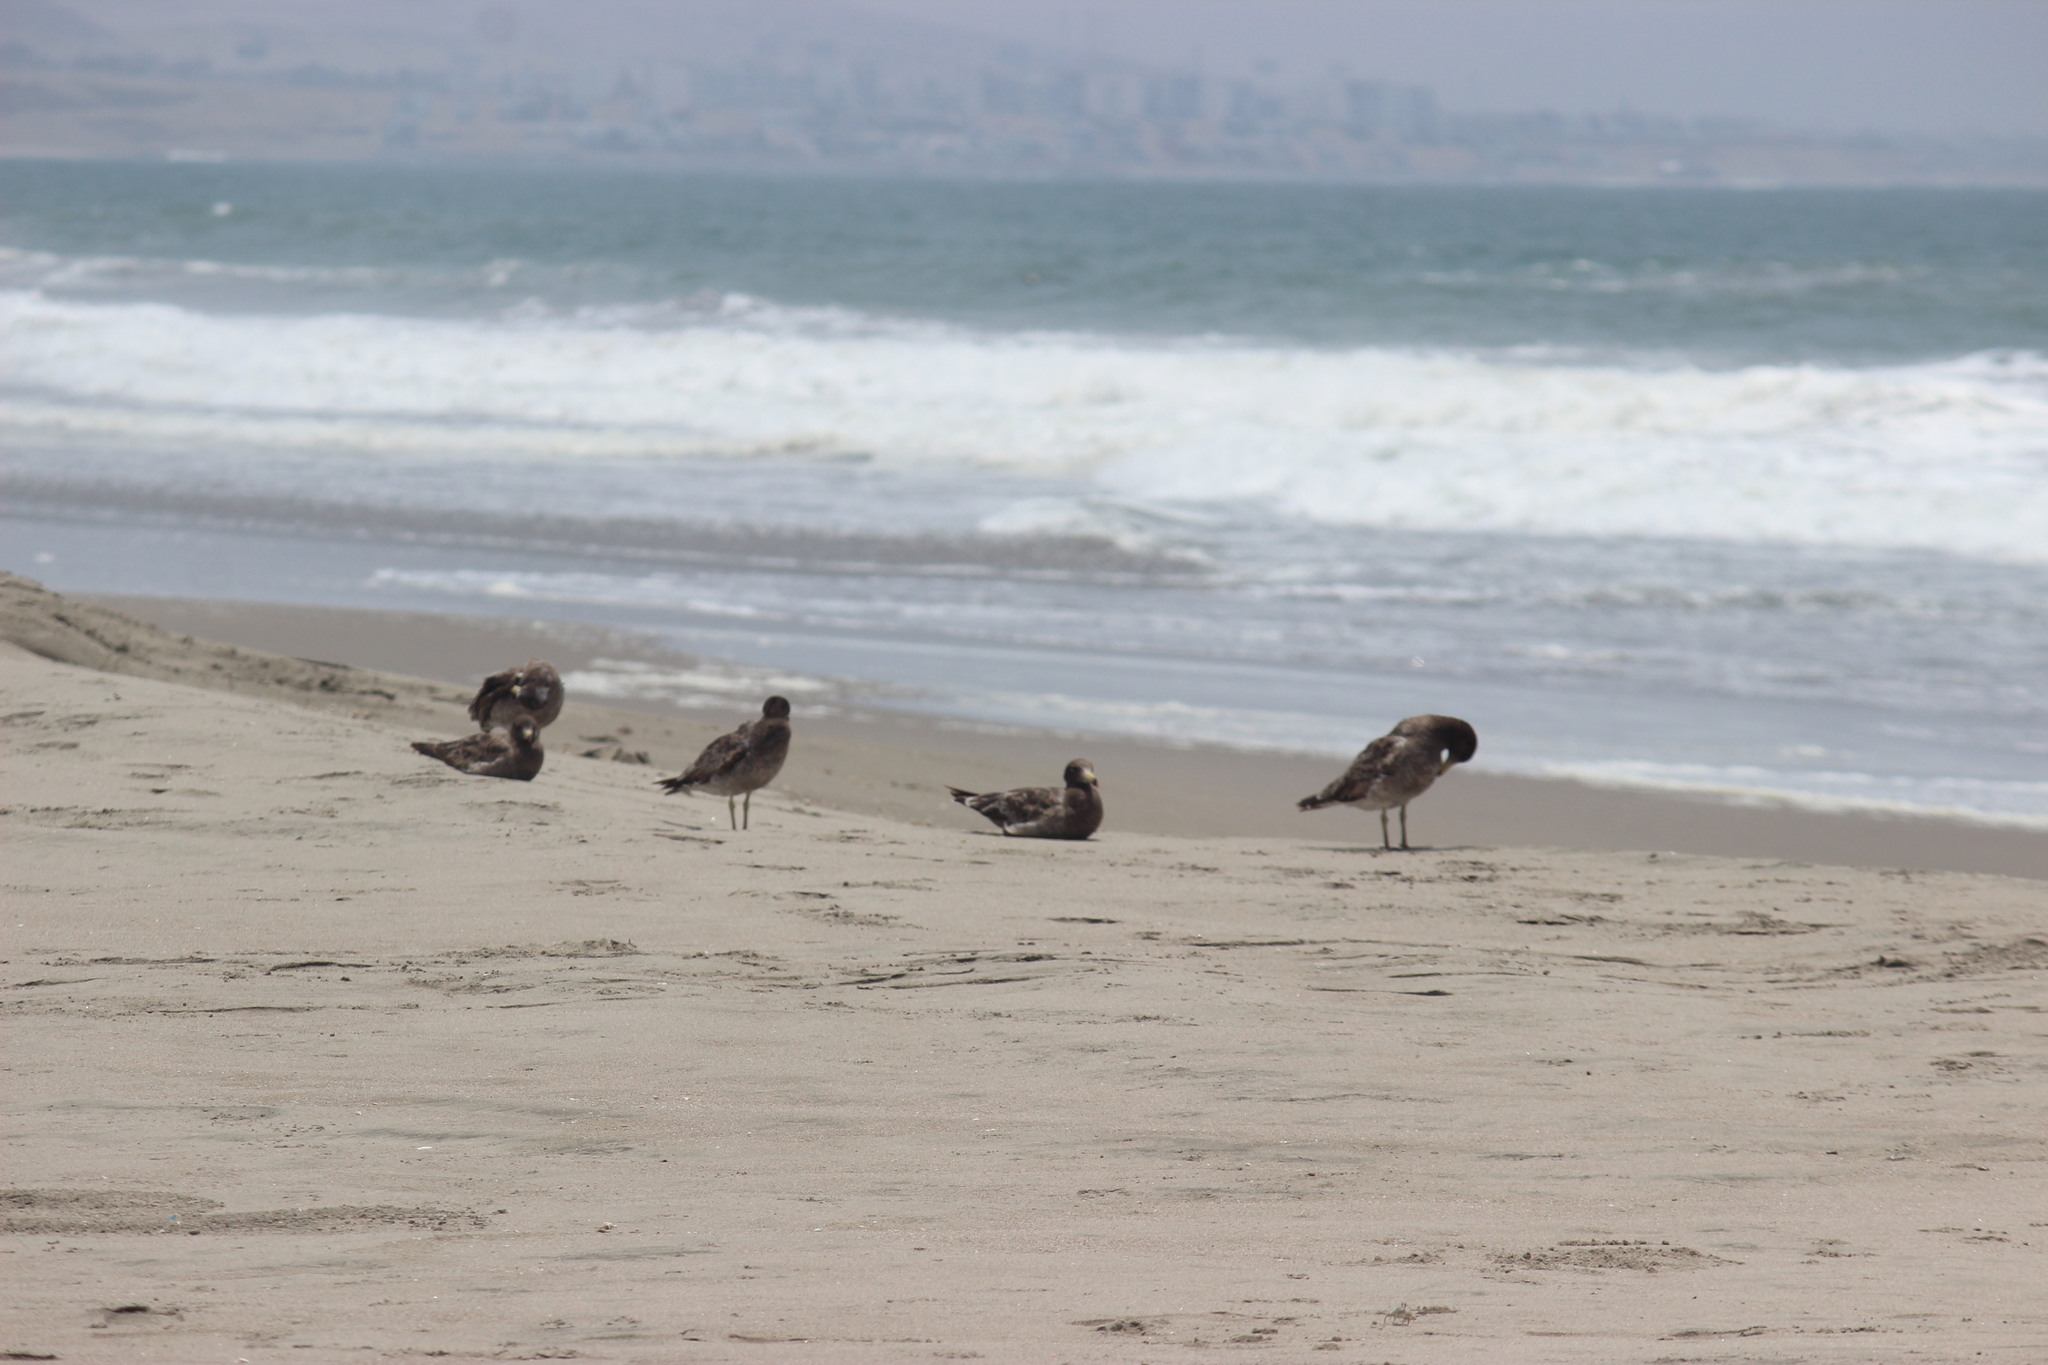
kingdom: Animalia
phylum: Chordata
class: Aves
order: Charadriiformes
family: Laridae
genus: Larus
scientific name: Larus belcheri
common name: Belcher's gull
